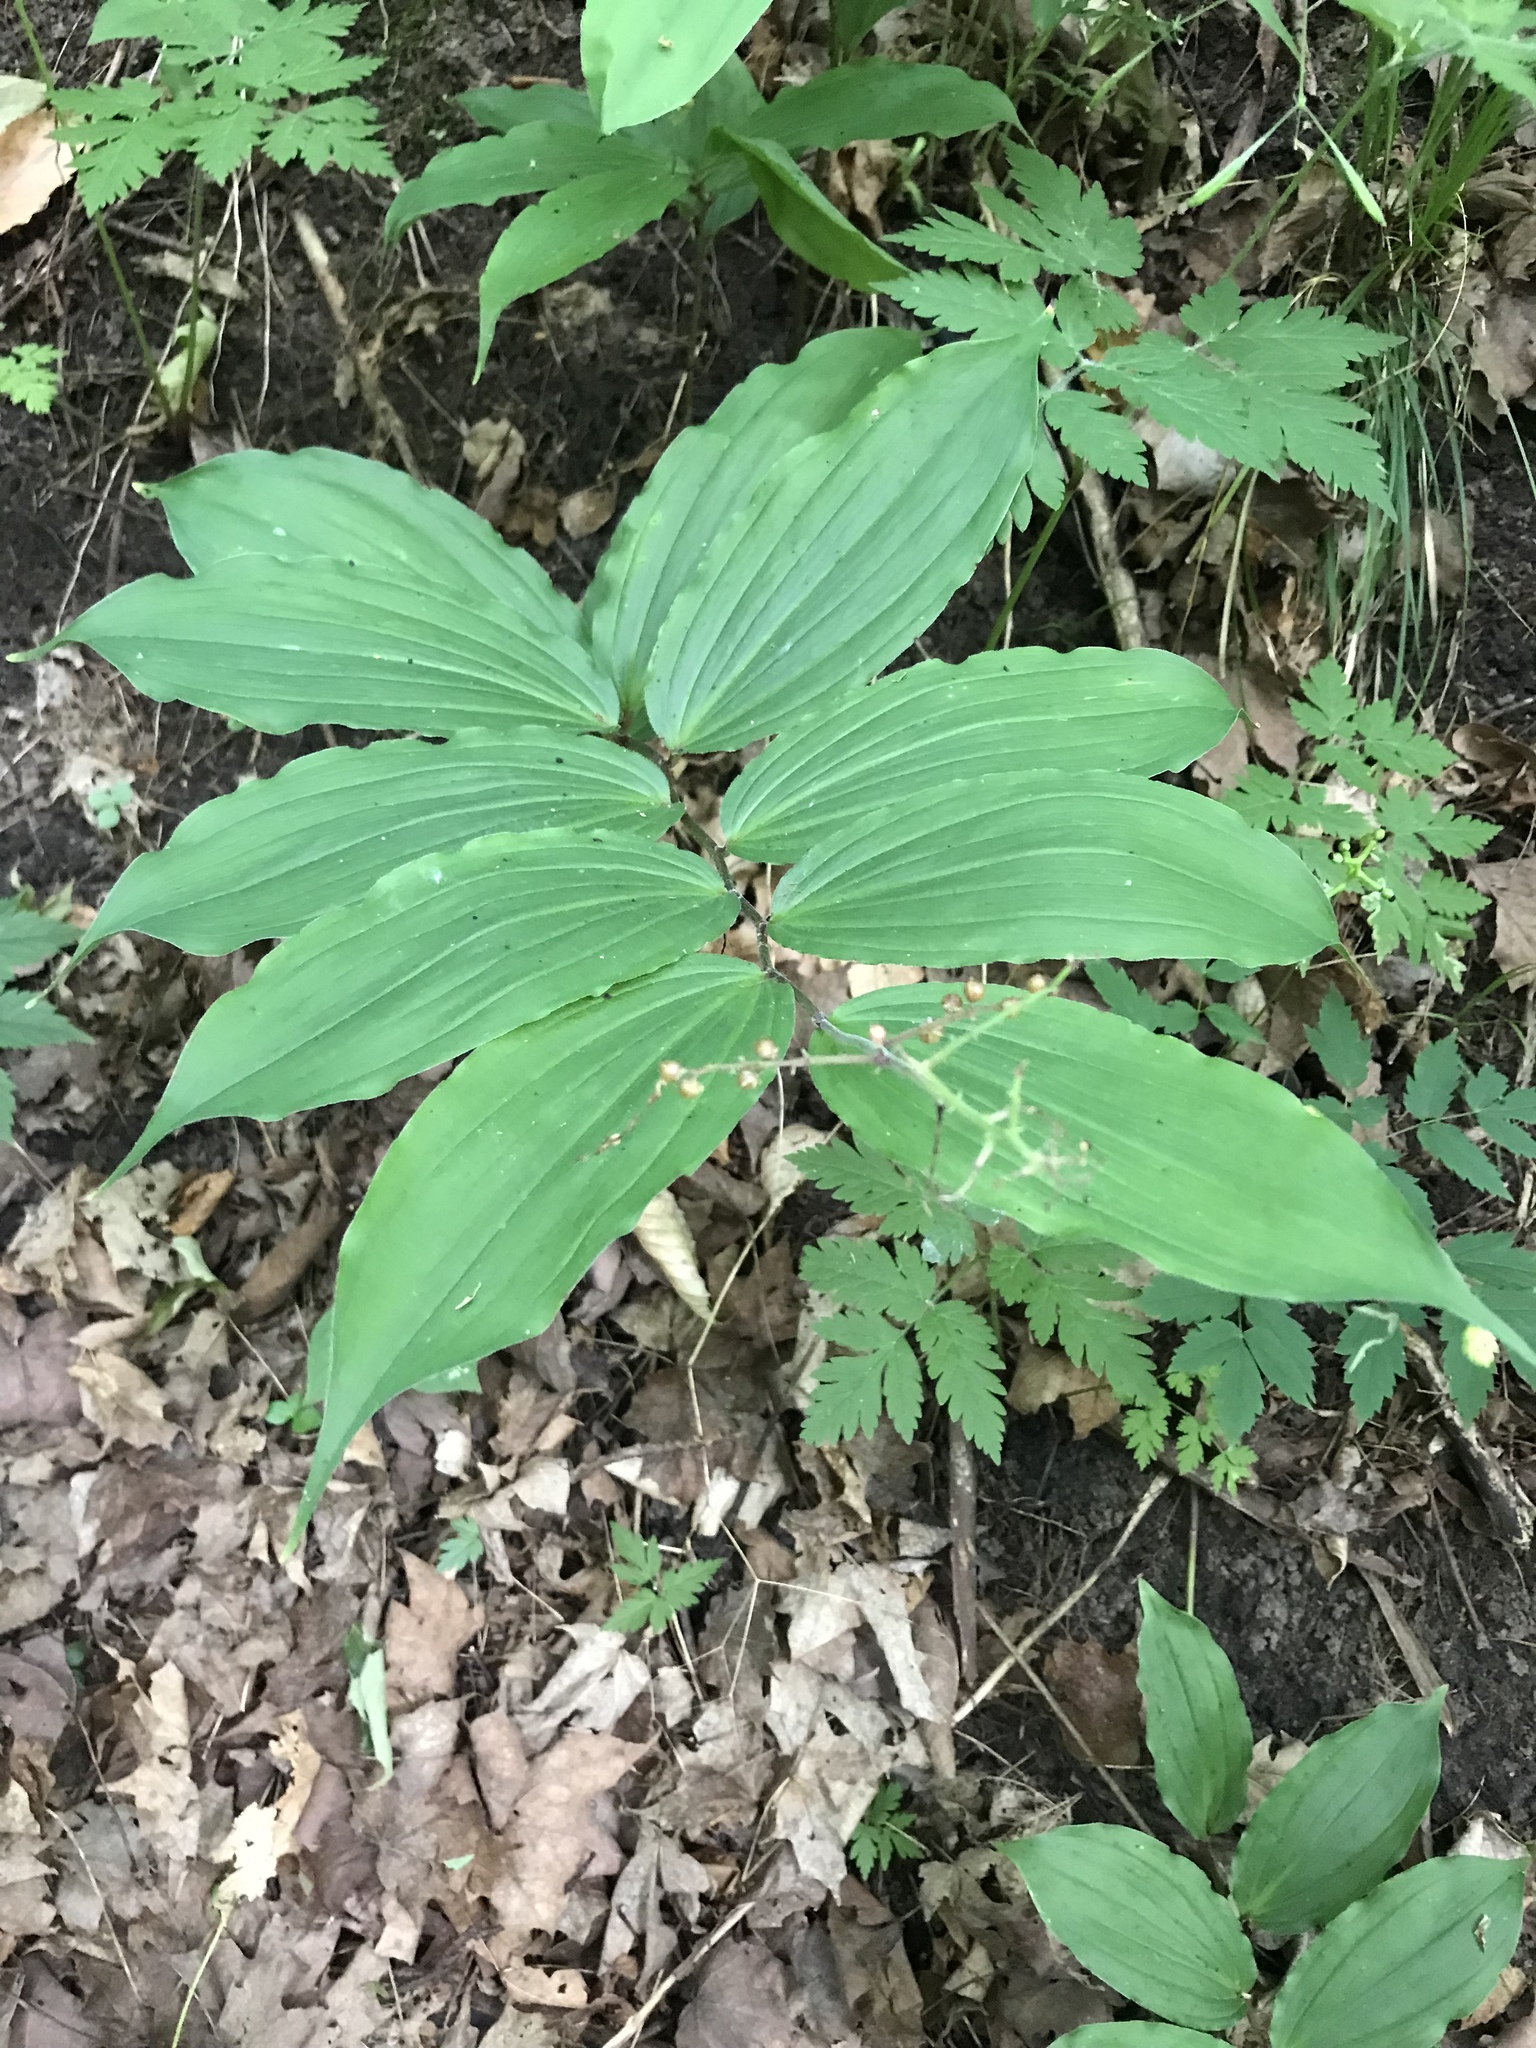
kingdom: Plantae
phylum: Tracheophyta
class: Liliopsida
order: Asparagales
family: Asparagaceae
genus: Maianthemum
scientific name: Maianthemum racemosum
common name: False spikenard
